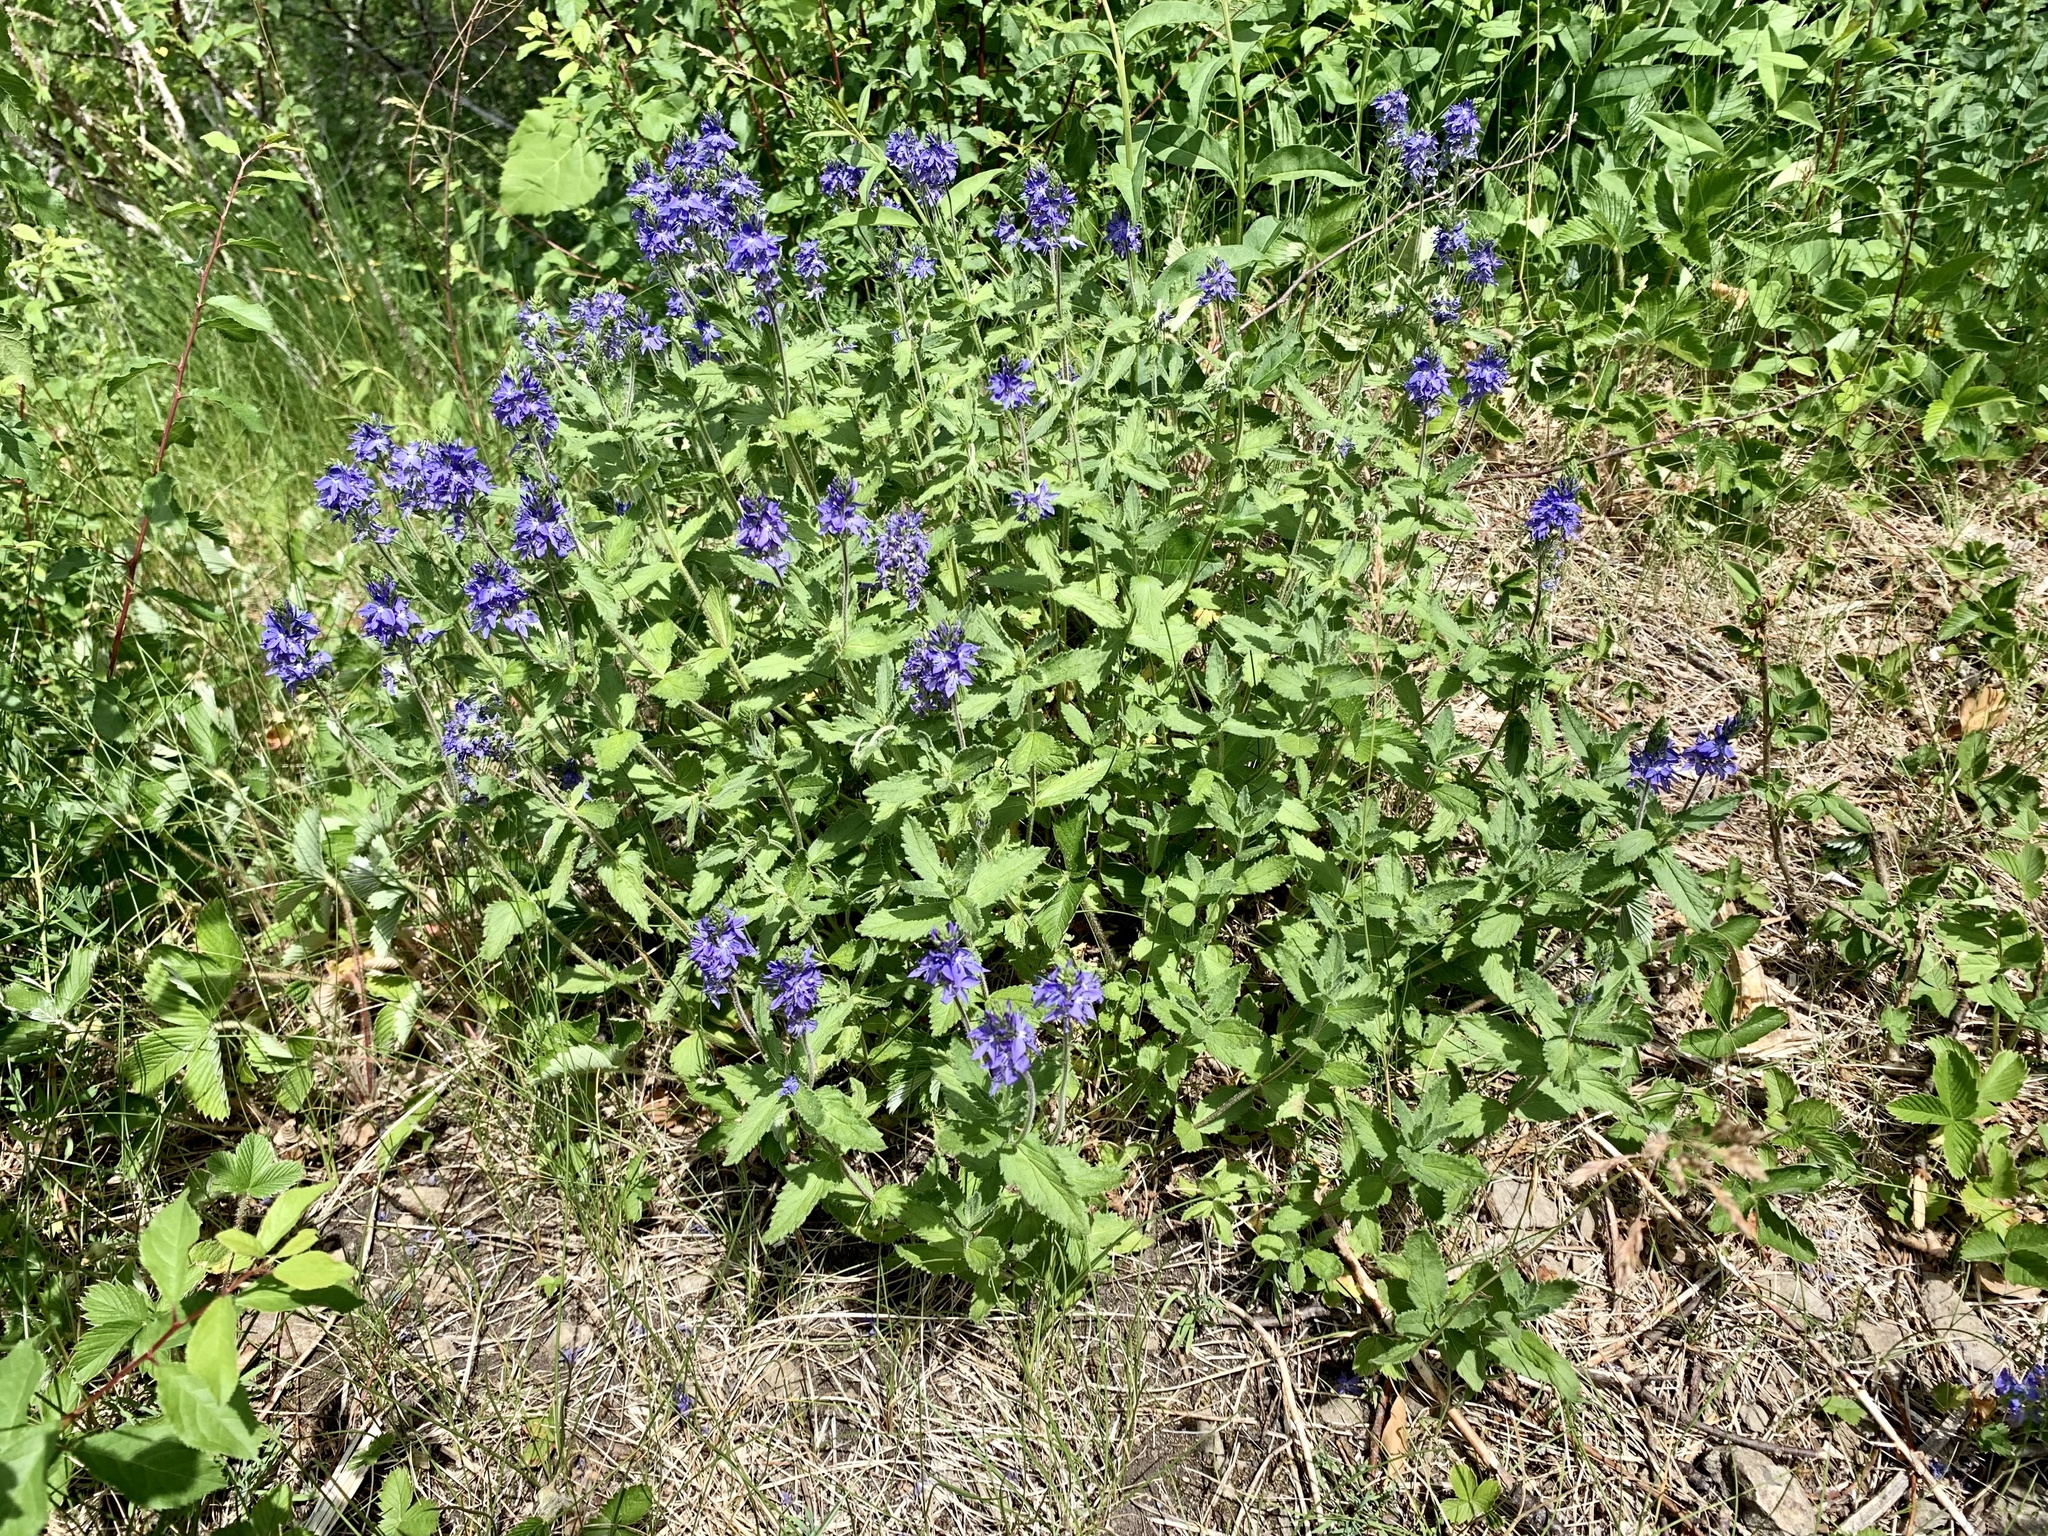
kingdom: Plantae
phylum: Tracheophyta
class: Magnoliopsida
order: Lamiales
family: Plantaginaceae
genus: Veronica
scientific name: Veronica teucrium
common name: Large speedwell
